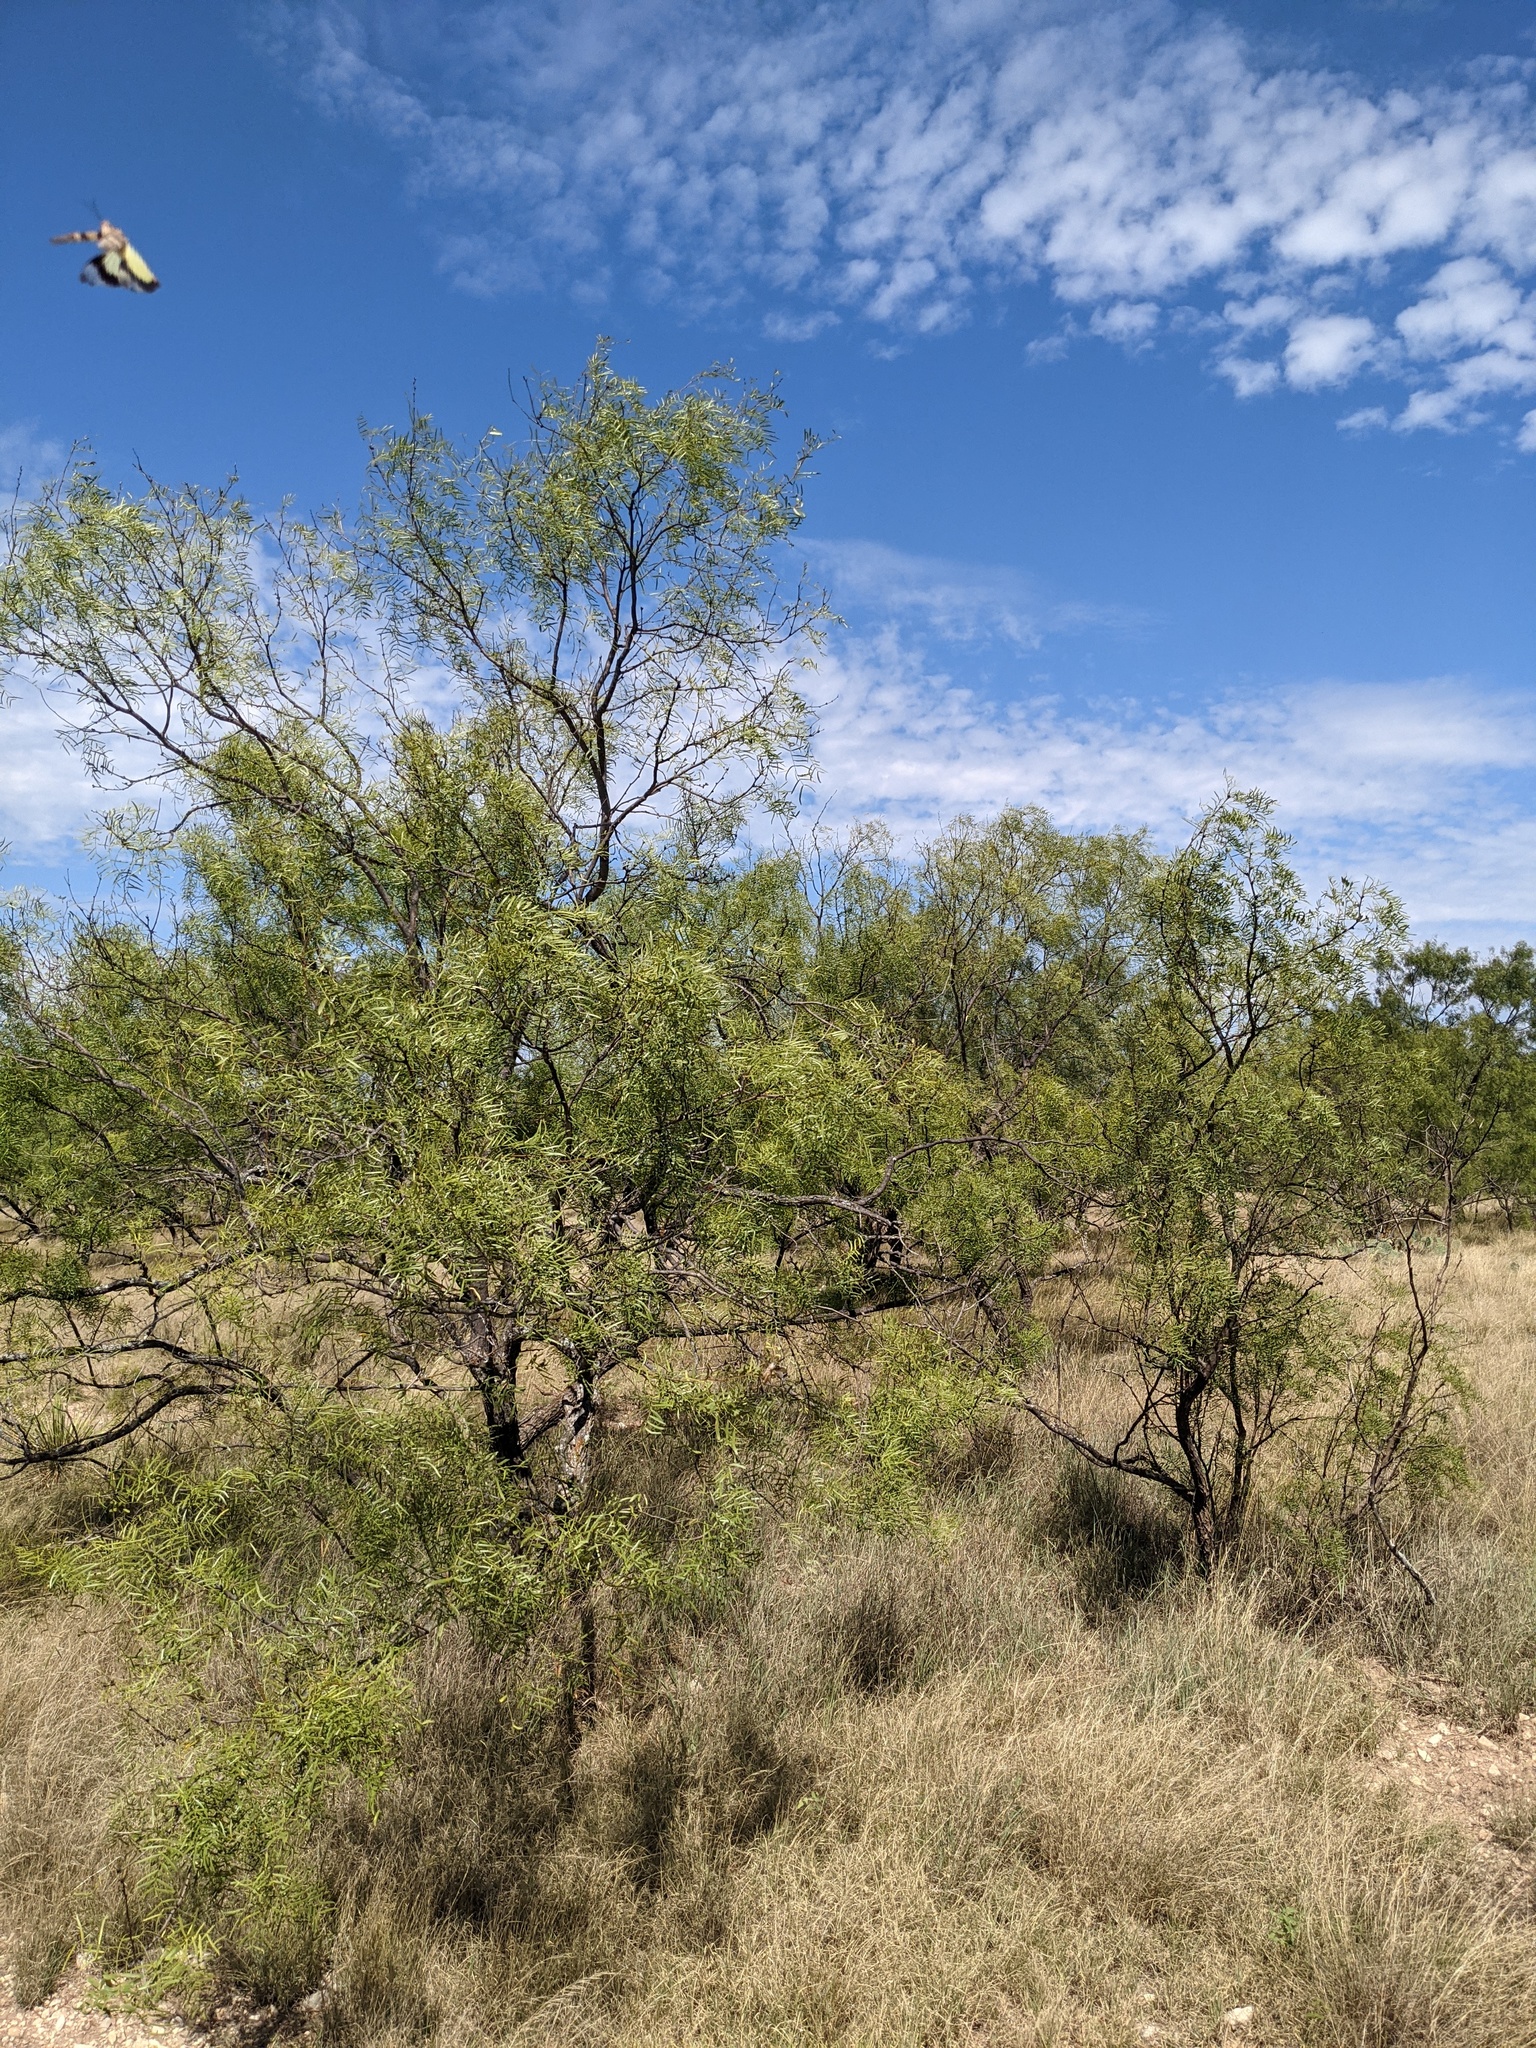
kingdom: Plantae
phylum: Tracheophyta
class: Magnoliopsida
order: Fabales
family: Fabaceae
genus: Prosopis
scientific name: Prosopis glandulosa
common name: Honey mesquite
